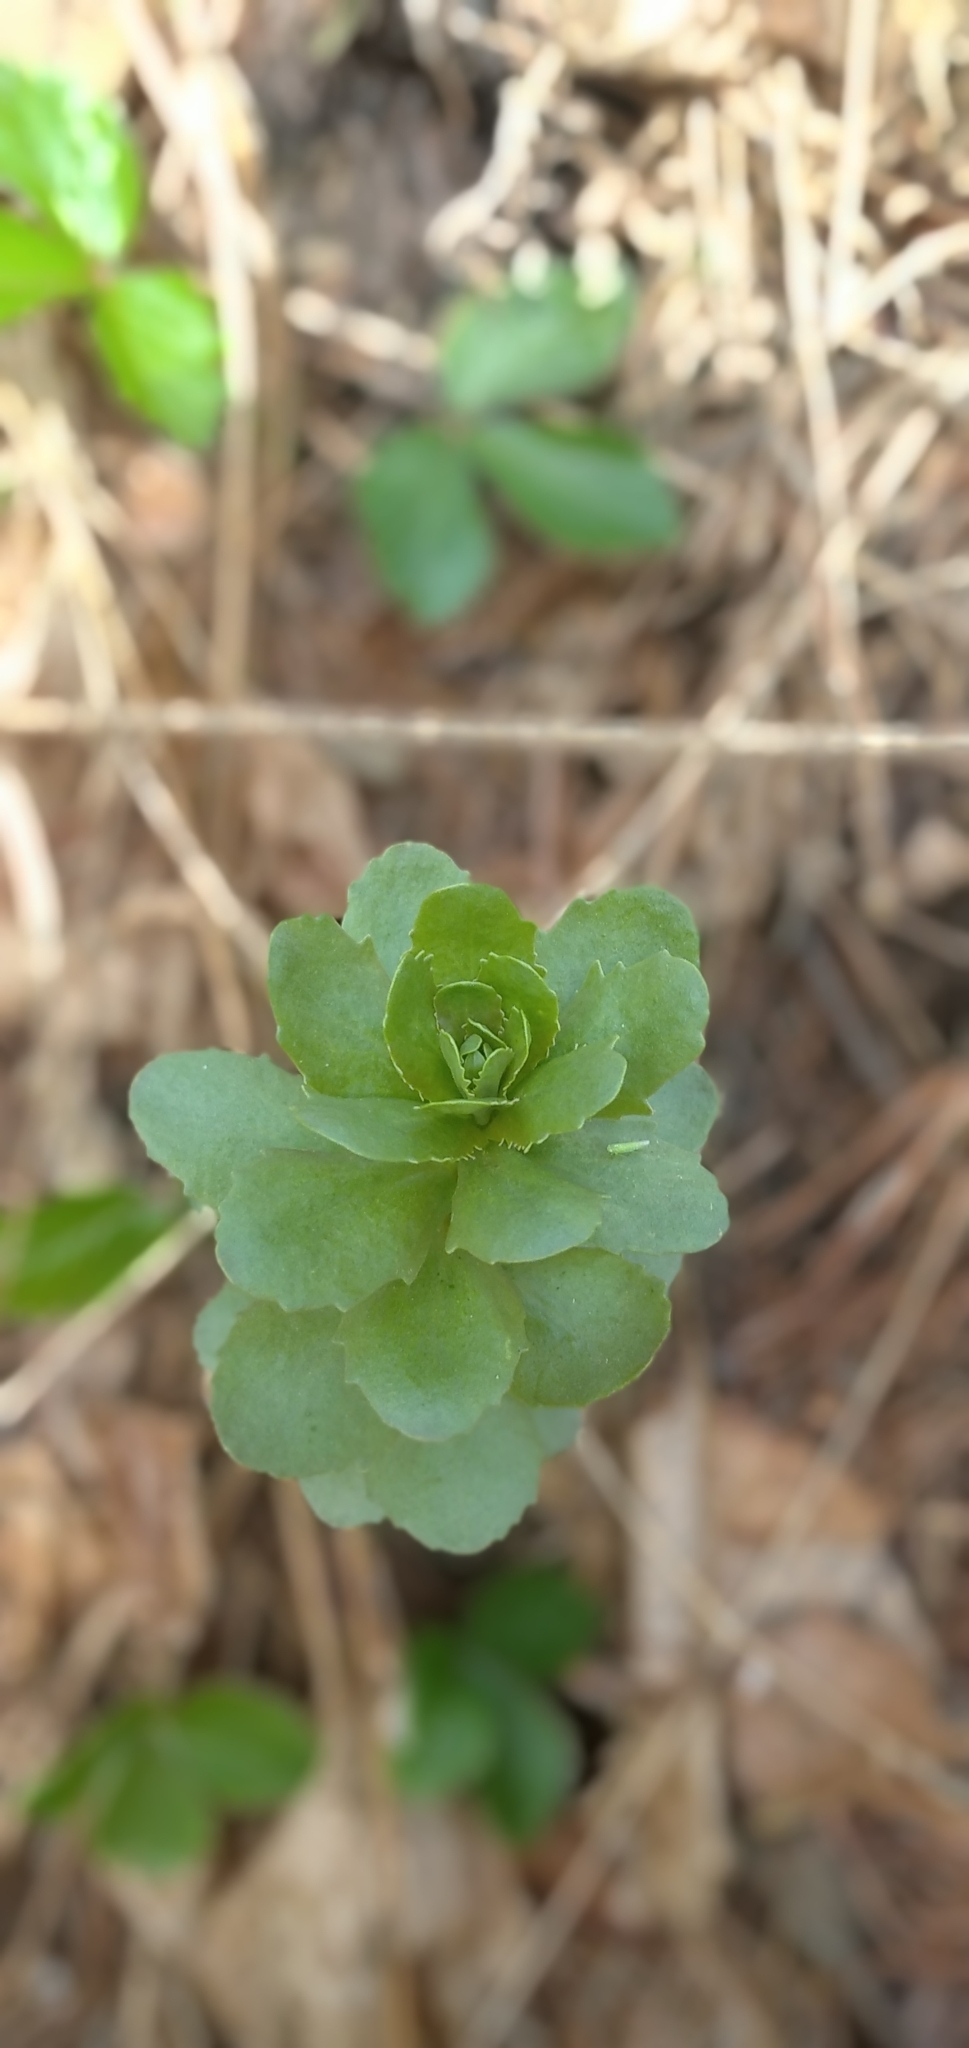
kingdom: Plantae
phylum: Tracheophyta
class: Magnoliopsida
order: Saxifragales
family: Crassulaceae
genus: Hylotelephium
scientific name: Hylotelephium telephium
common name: Live-forever
